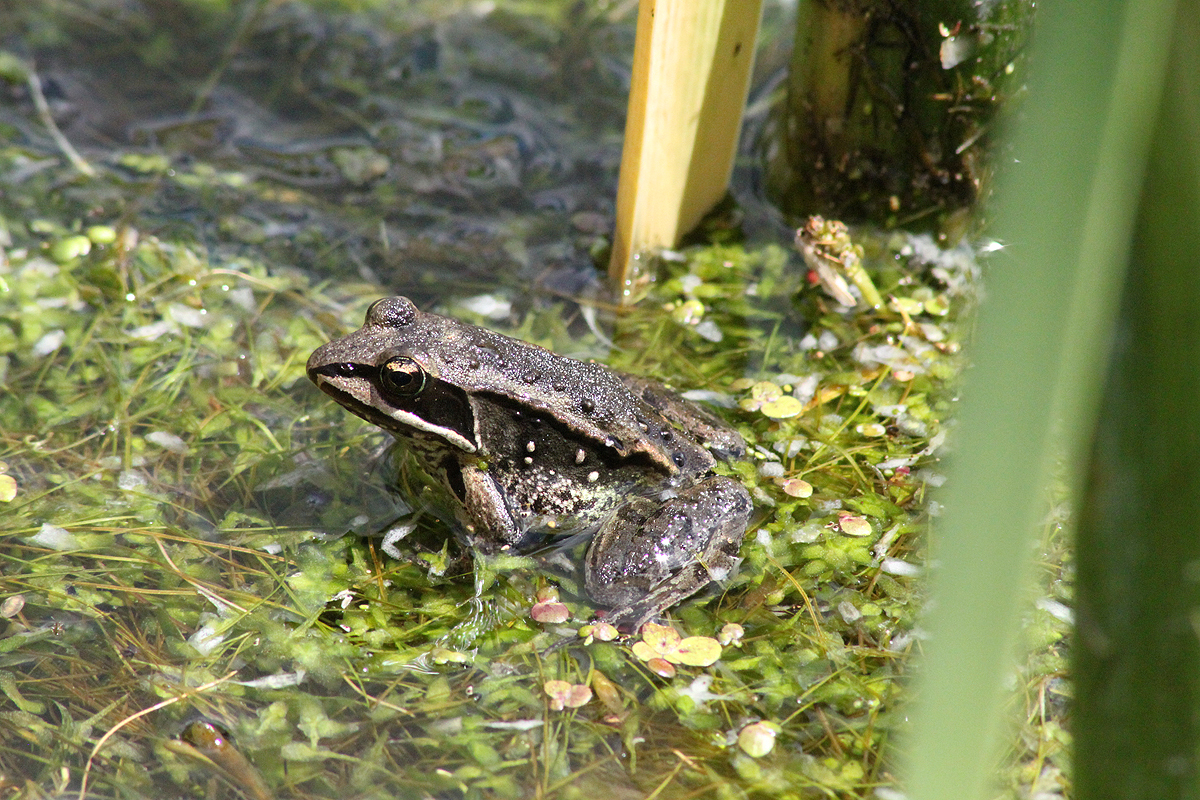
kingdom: Animalia
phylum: Chordata
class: Amphibia
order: Anura
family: Ranidae
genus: Lithobates
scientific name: Lithobates sylvaticus
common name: Wood frog
